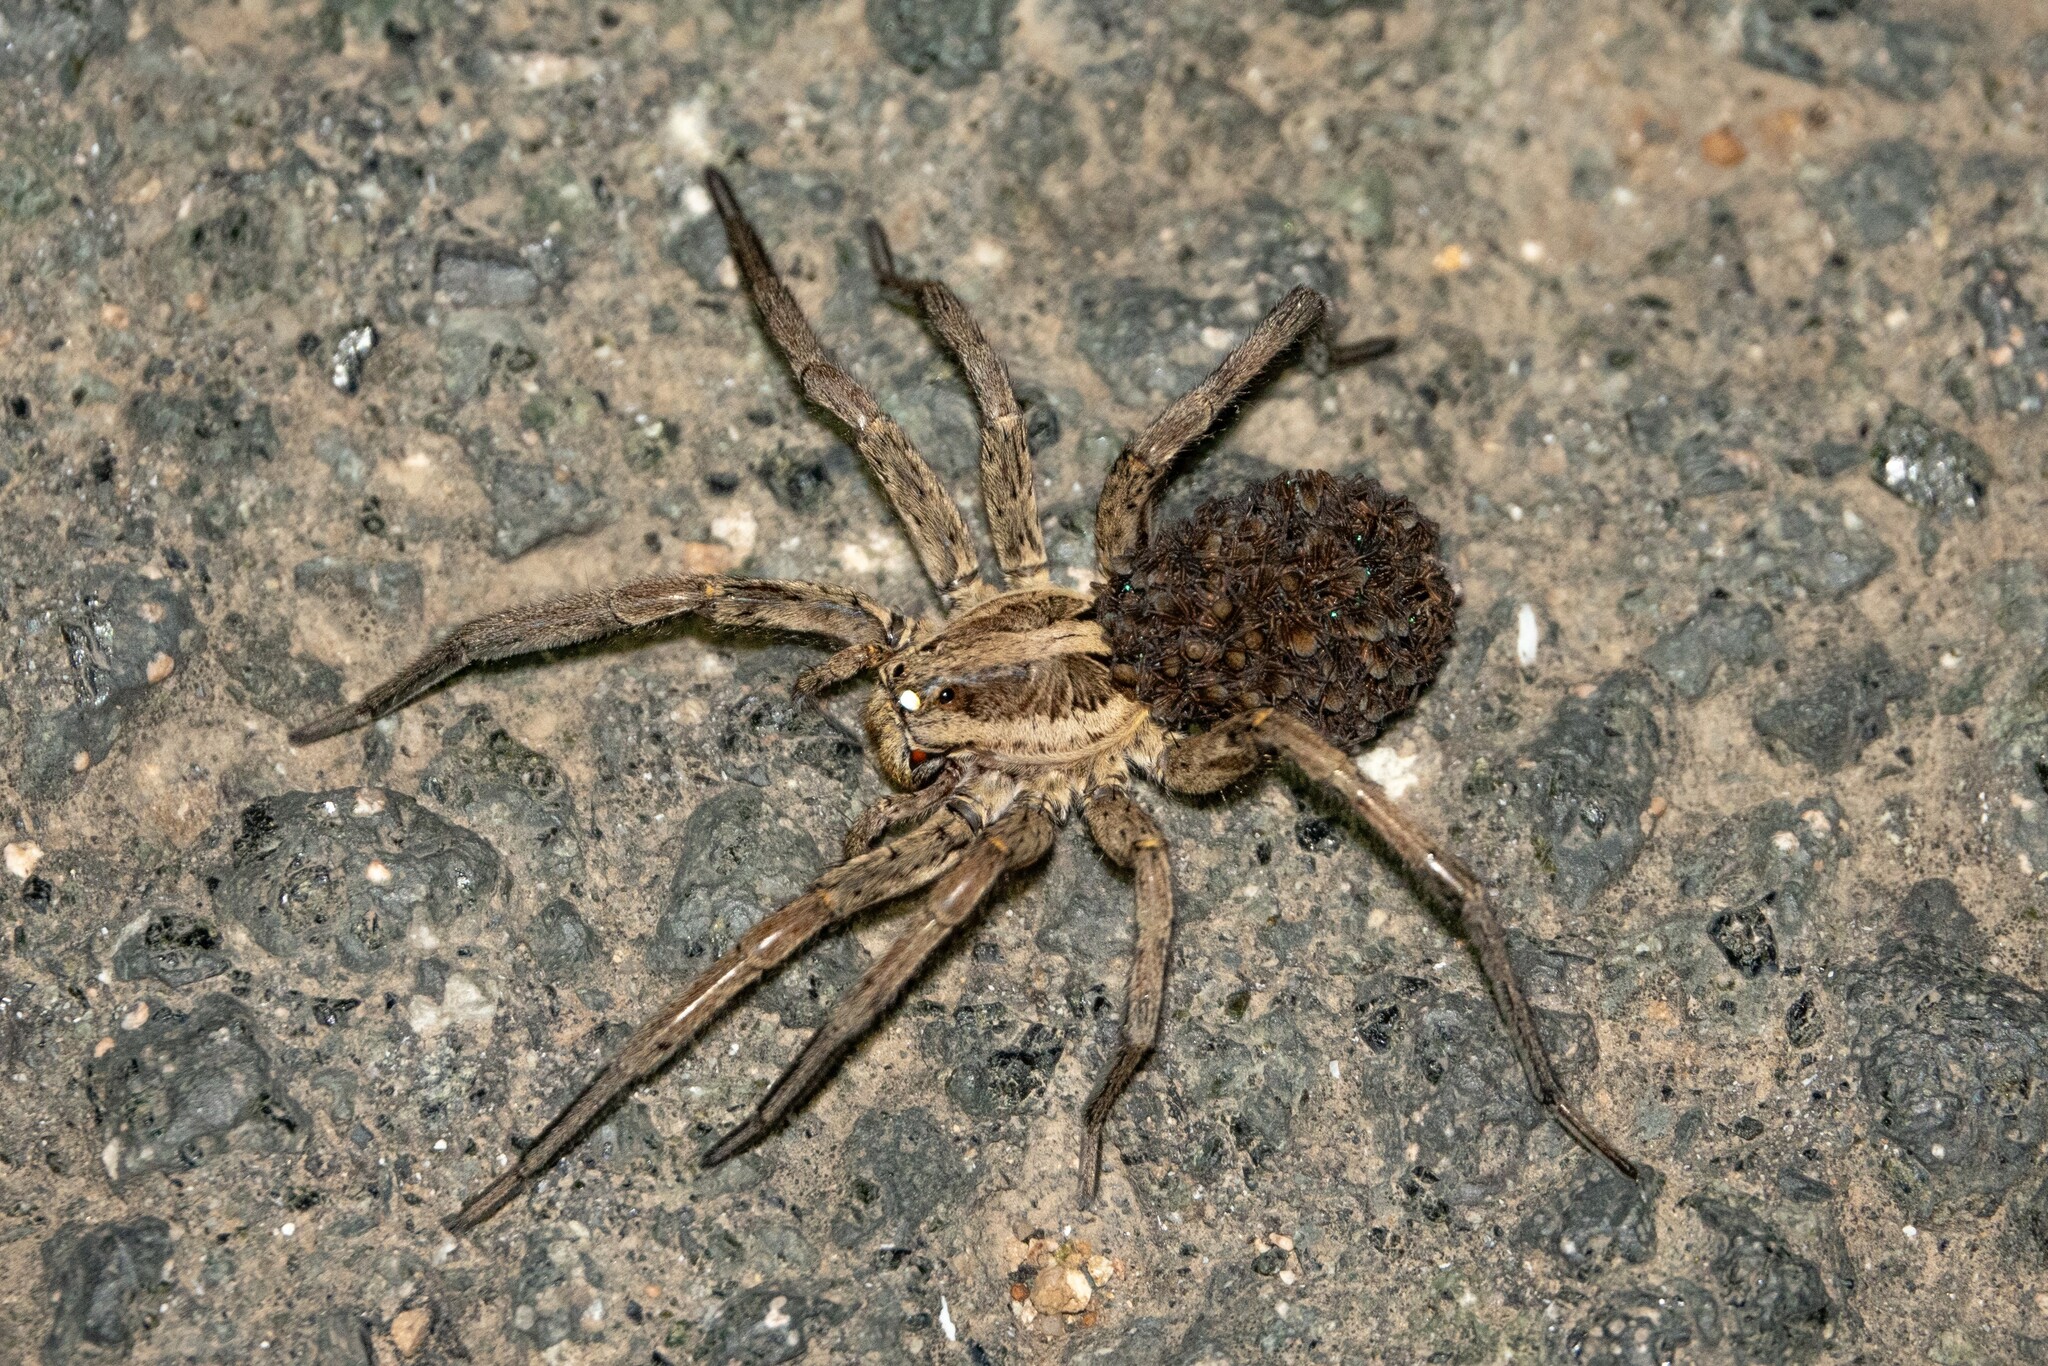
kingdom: Animalia
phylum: Arthropoda
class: Arachnida
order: Araneae
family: Lycosidae
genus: Hogna
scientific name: Hogna radiata
